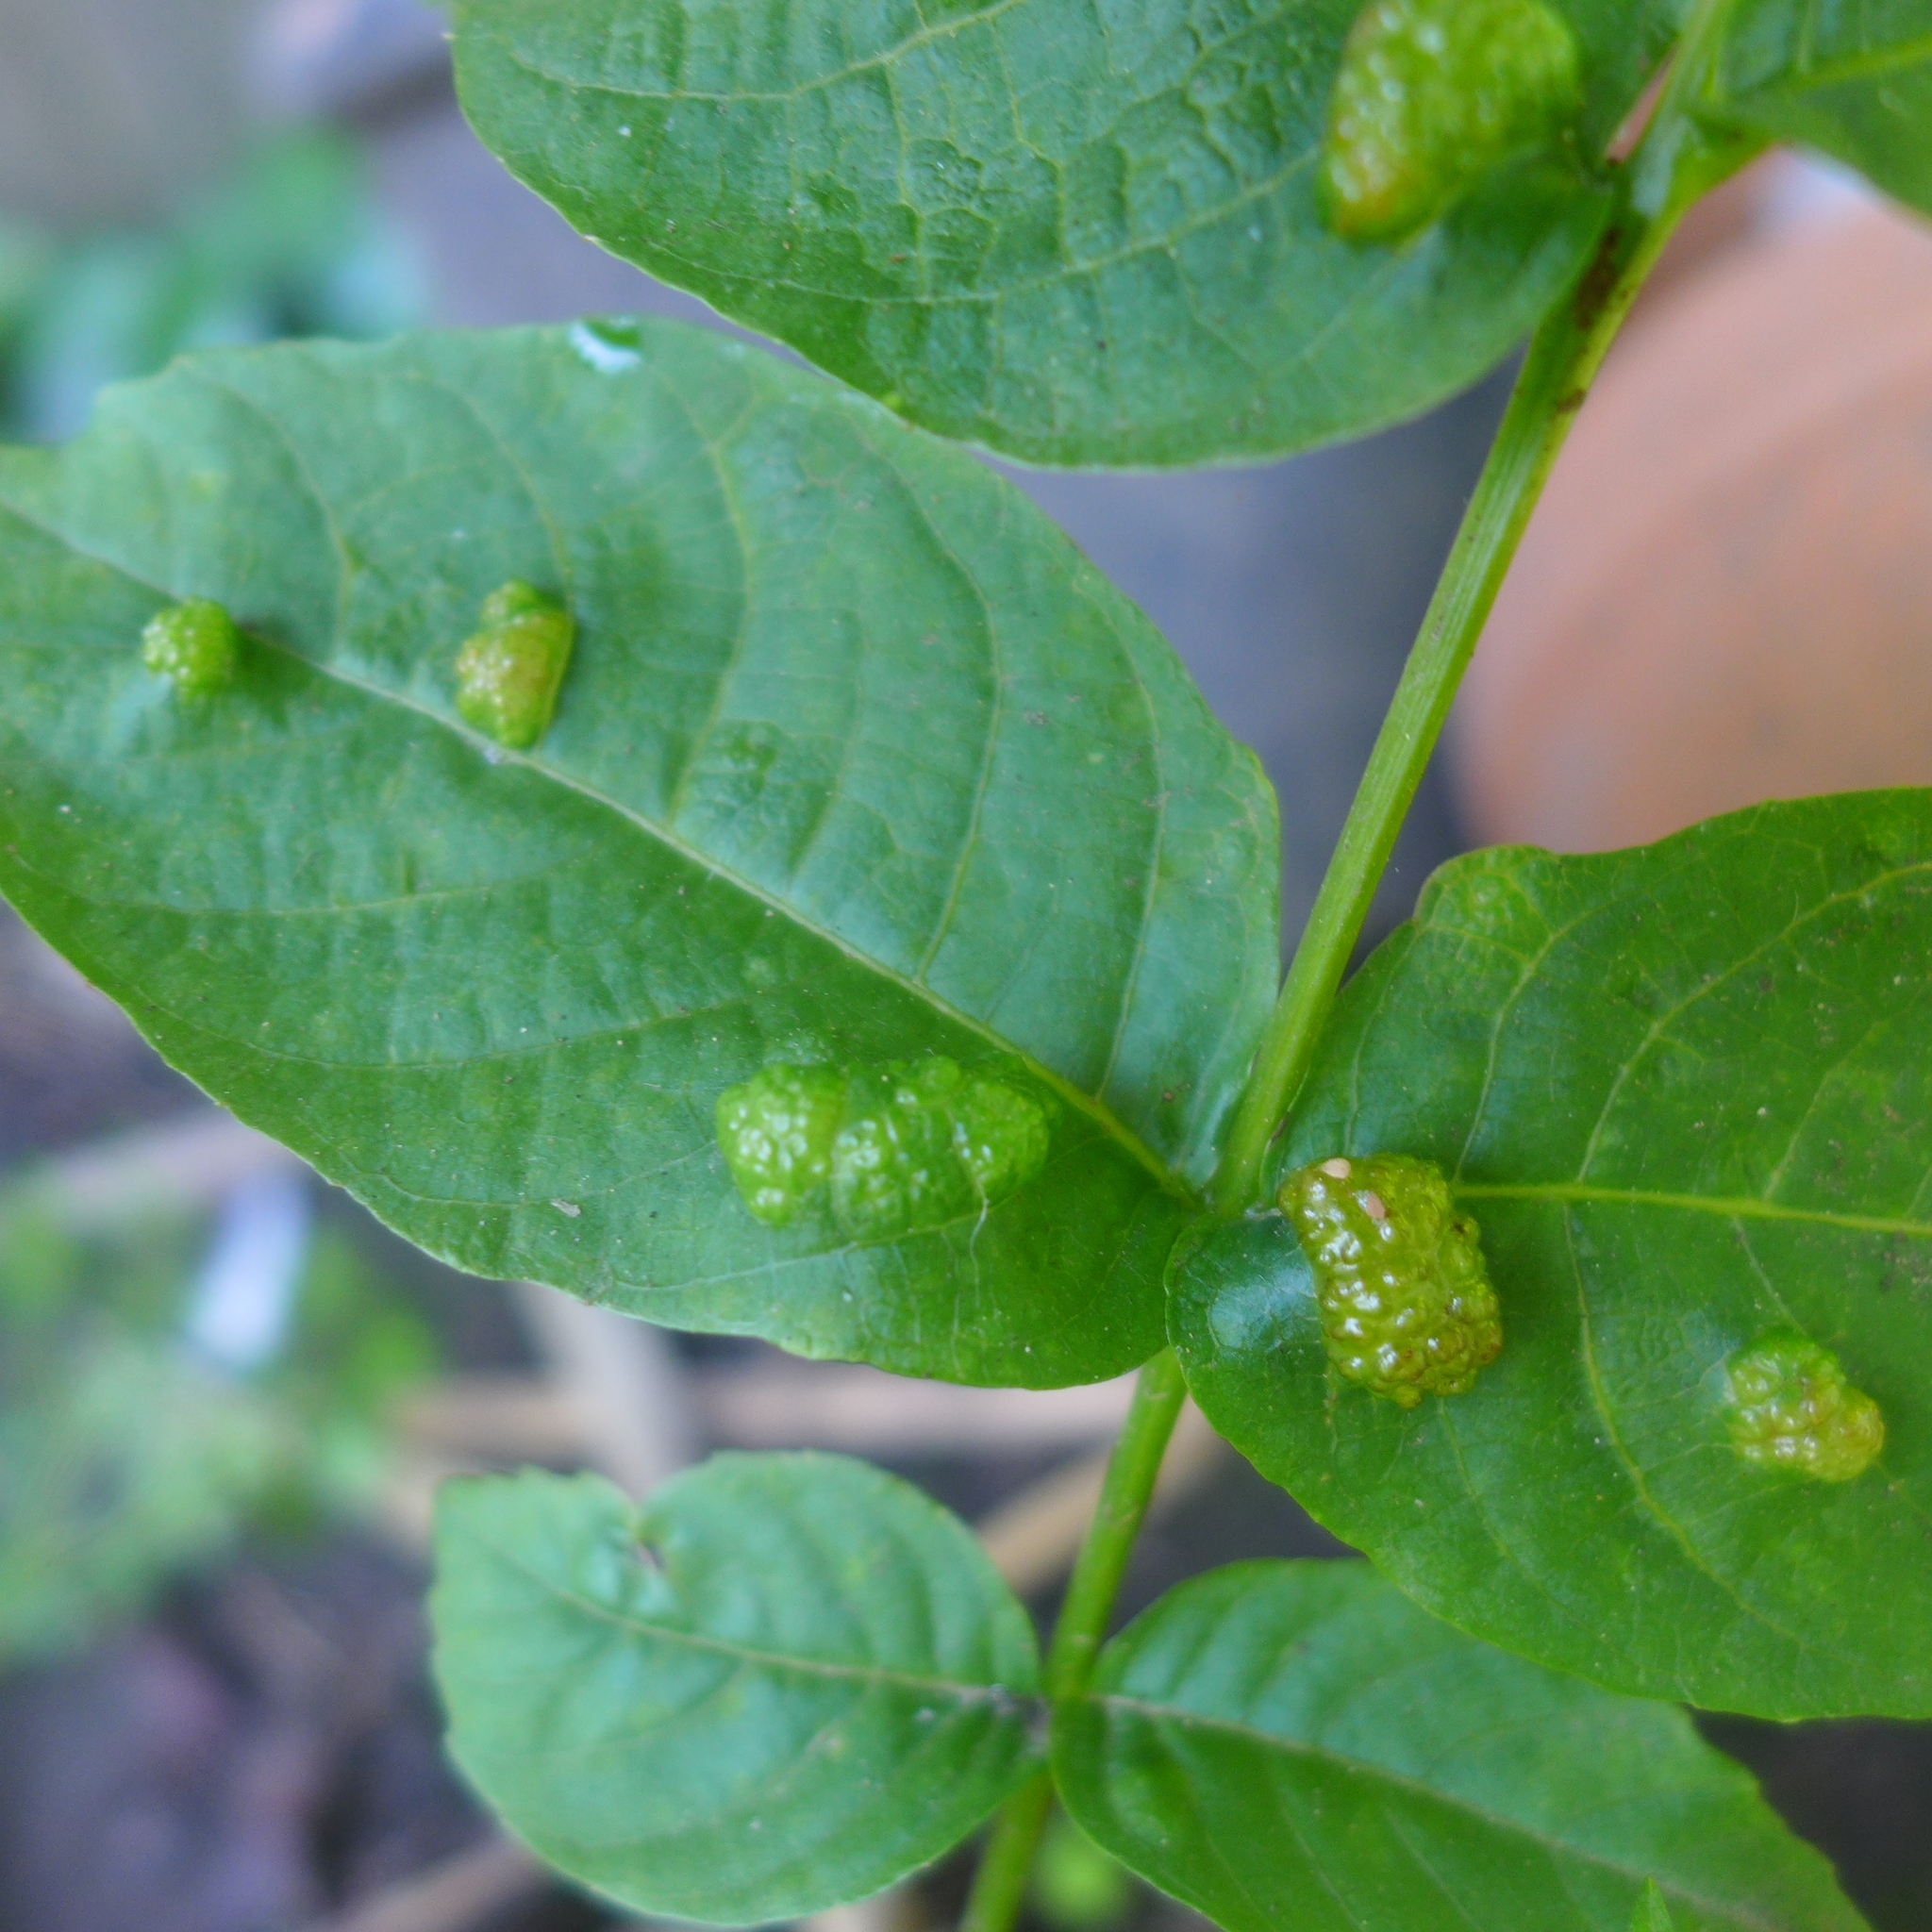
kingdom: Animalia
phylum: Arthropoda
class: Arachnida
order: Trombidiformes
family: Eriophyidae
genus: Aceria
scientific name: Aceria erinea
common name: Persian walnut erineum mite
